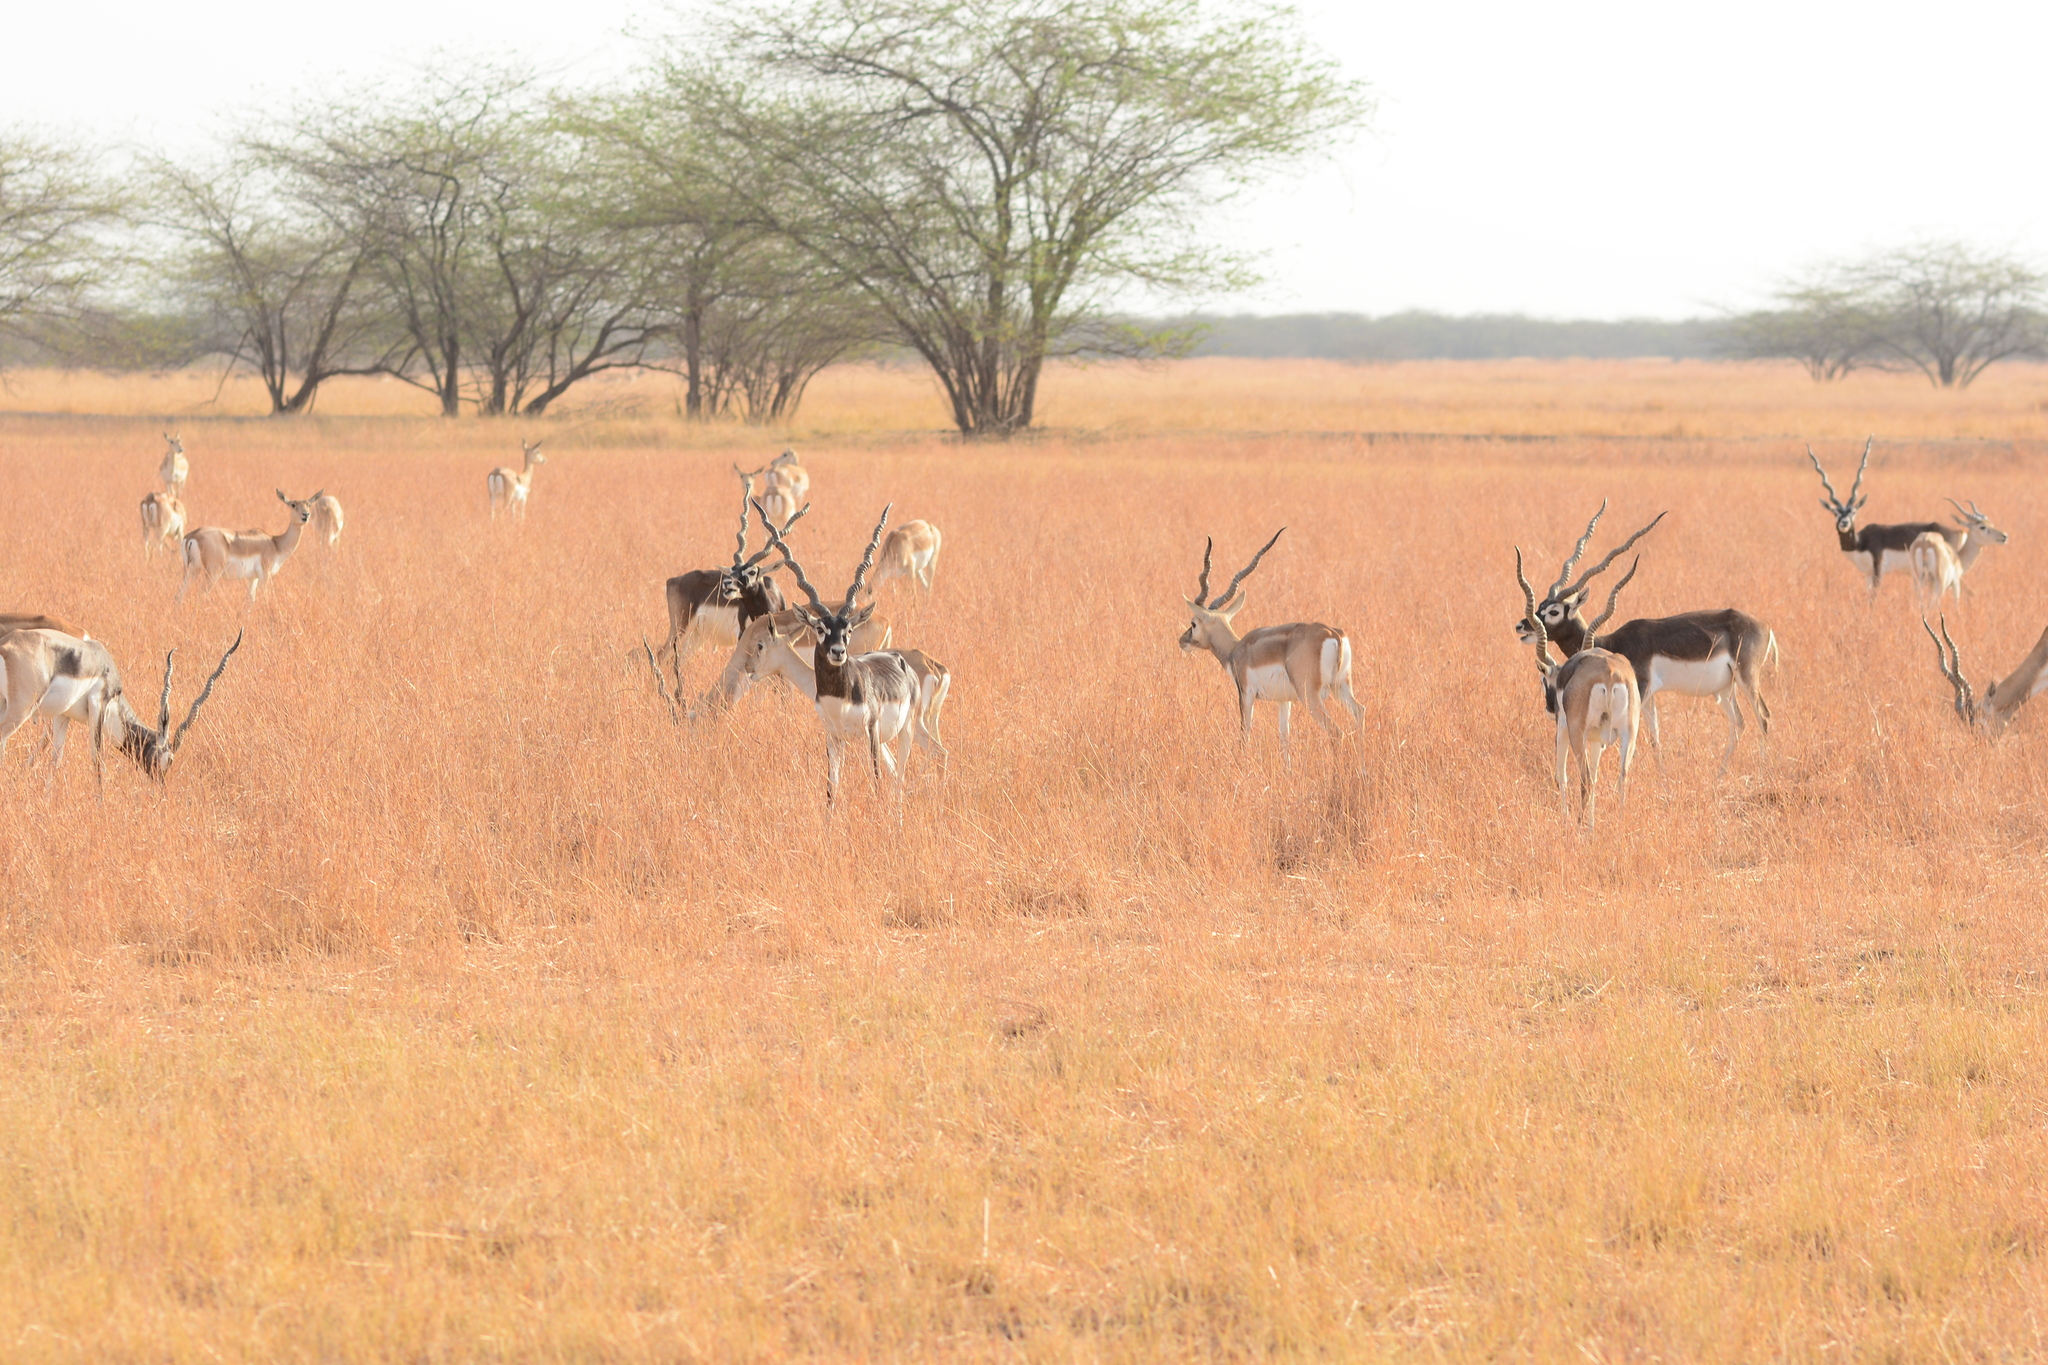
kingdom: Animalia
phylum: Chordata
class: Mammalia
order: Artiodactyla
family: Bovidae
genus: Antilope
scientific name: Antilope cervicapra
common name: Blackbuck
